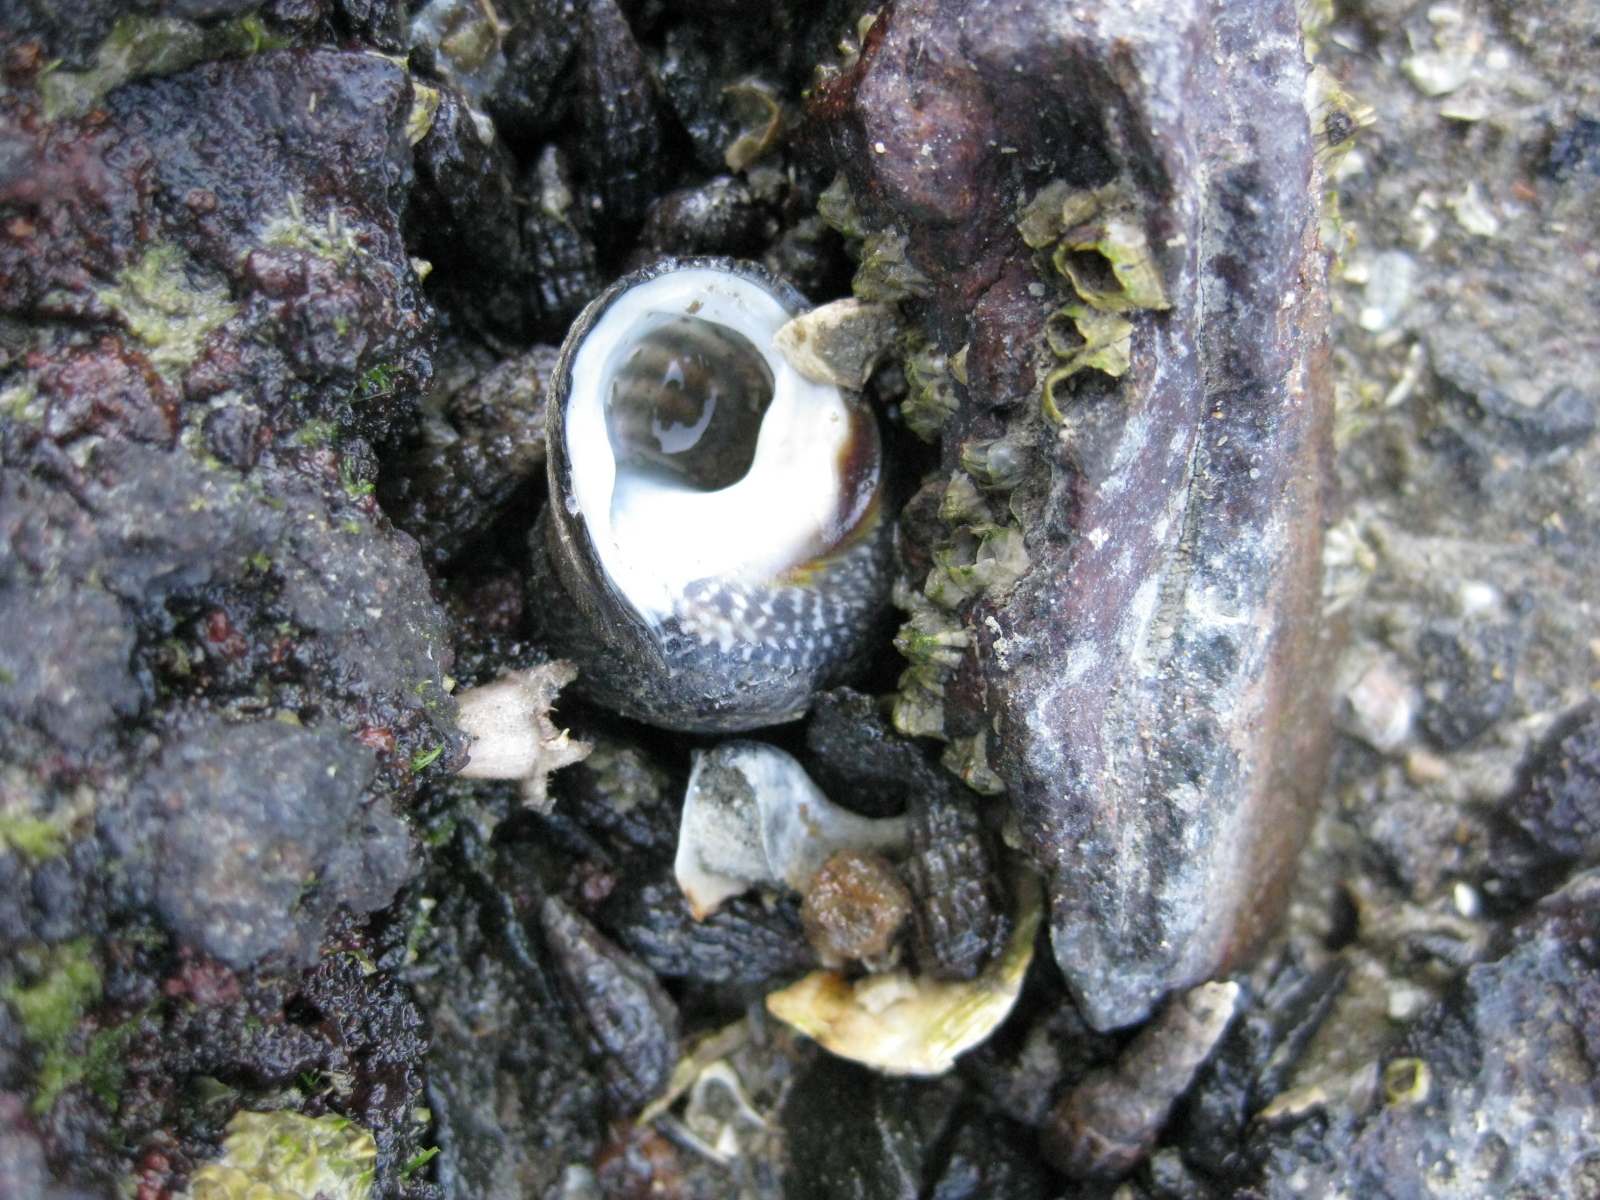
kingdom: Animalia
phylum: Mollusca
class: Gastropoda
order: Trochida
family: Trochidae
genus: Diloma
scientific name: Diloma aethiops
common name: Scorched monodont
